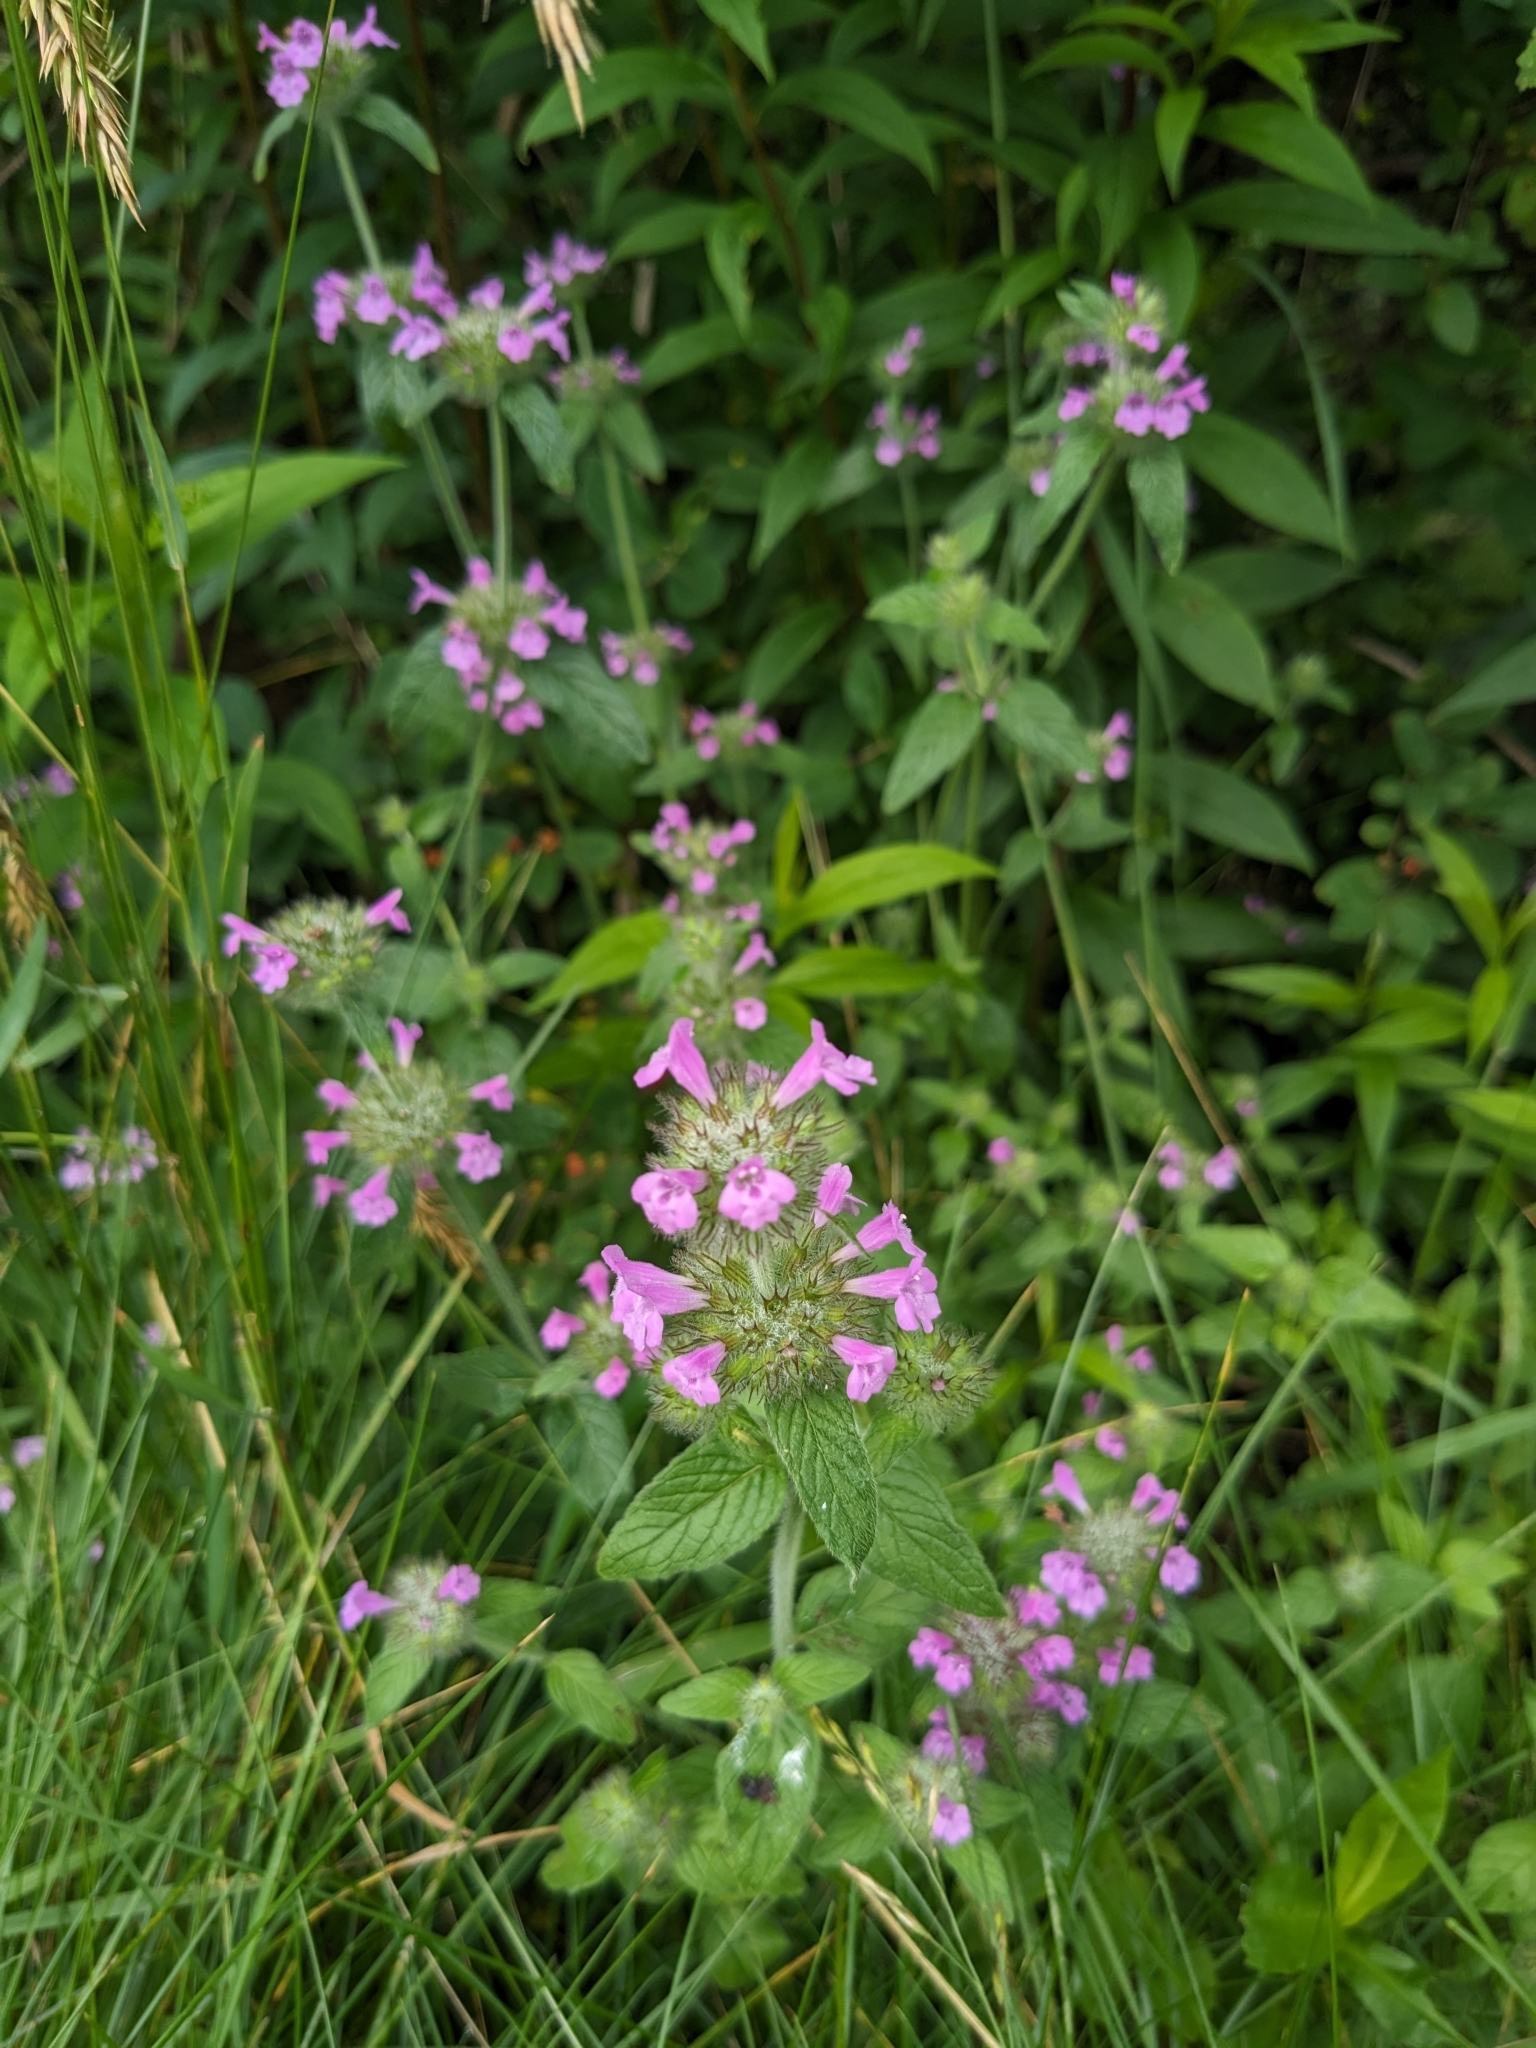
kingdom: Plantae
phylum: Tracheophyta
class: Magnoliopsida
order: Lamiales
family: Lamiaceae
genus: Clinopodium
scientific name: Clinopodium vulgare
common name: Wild basil
